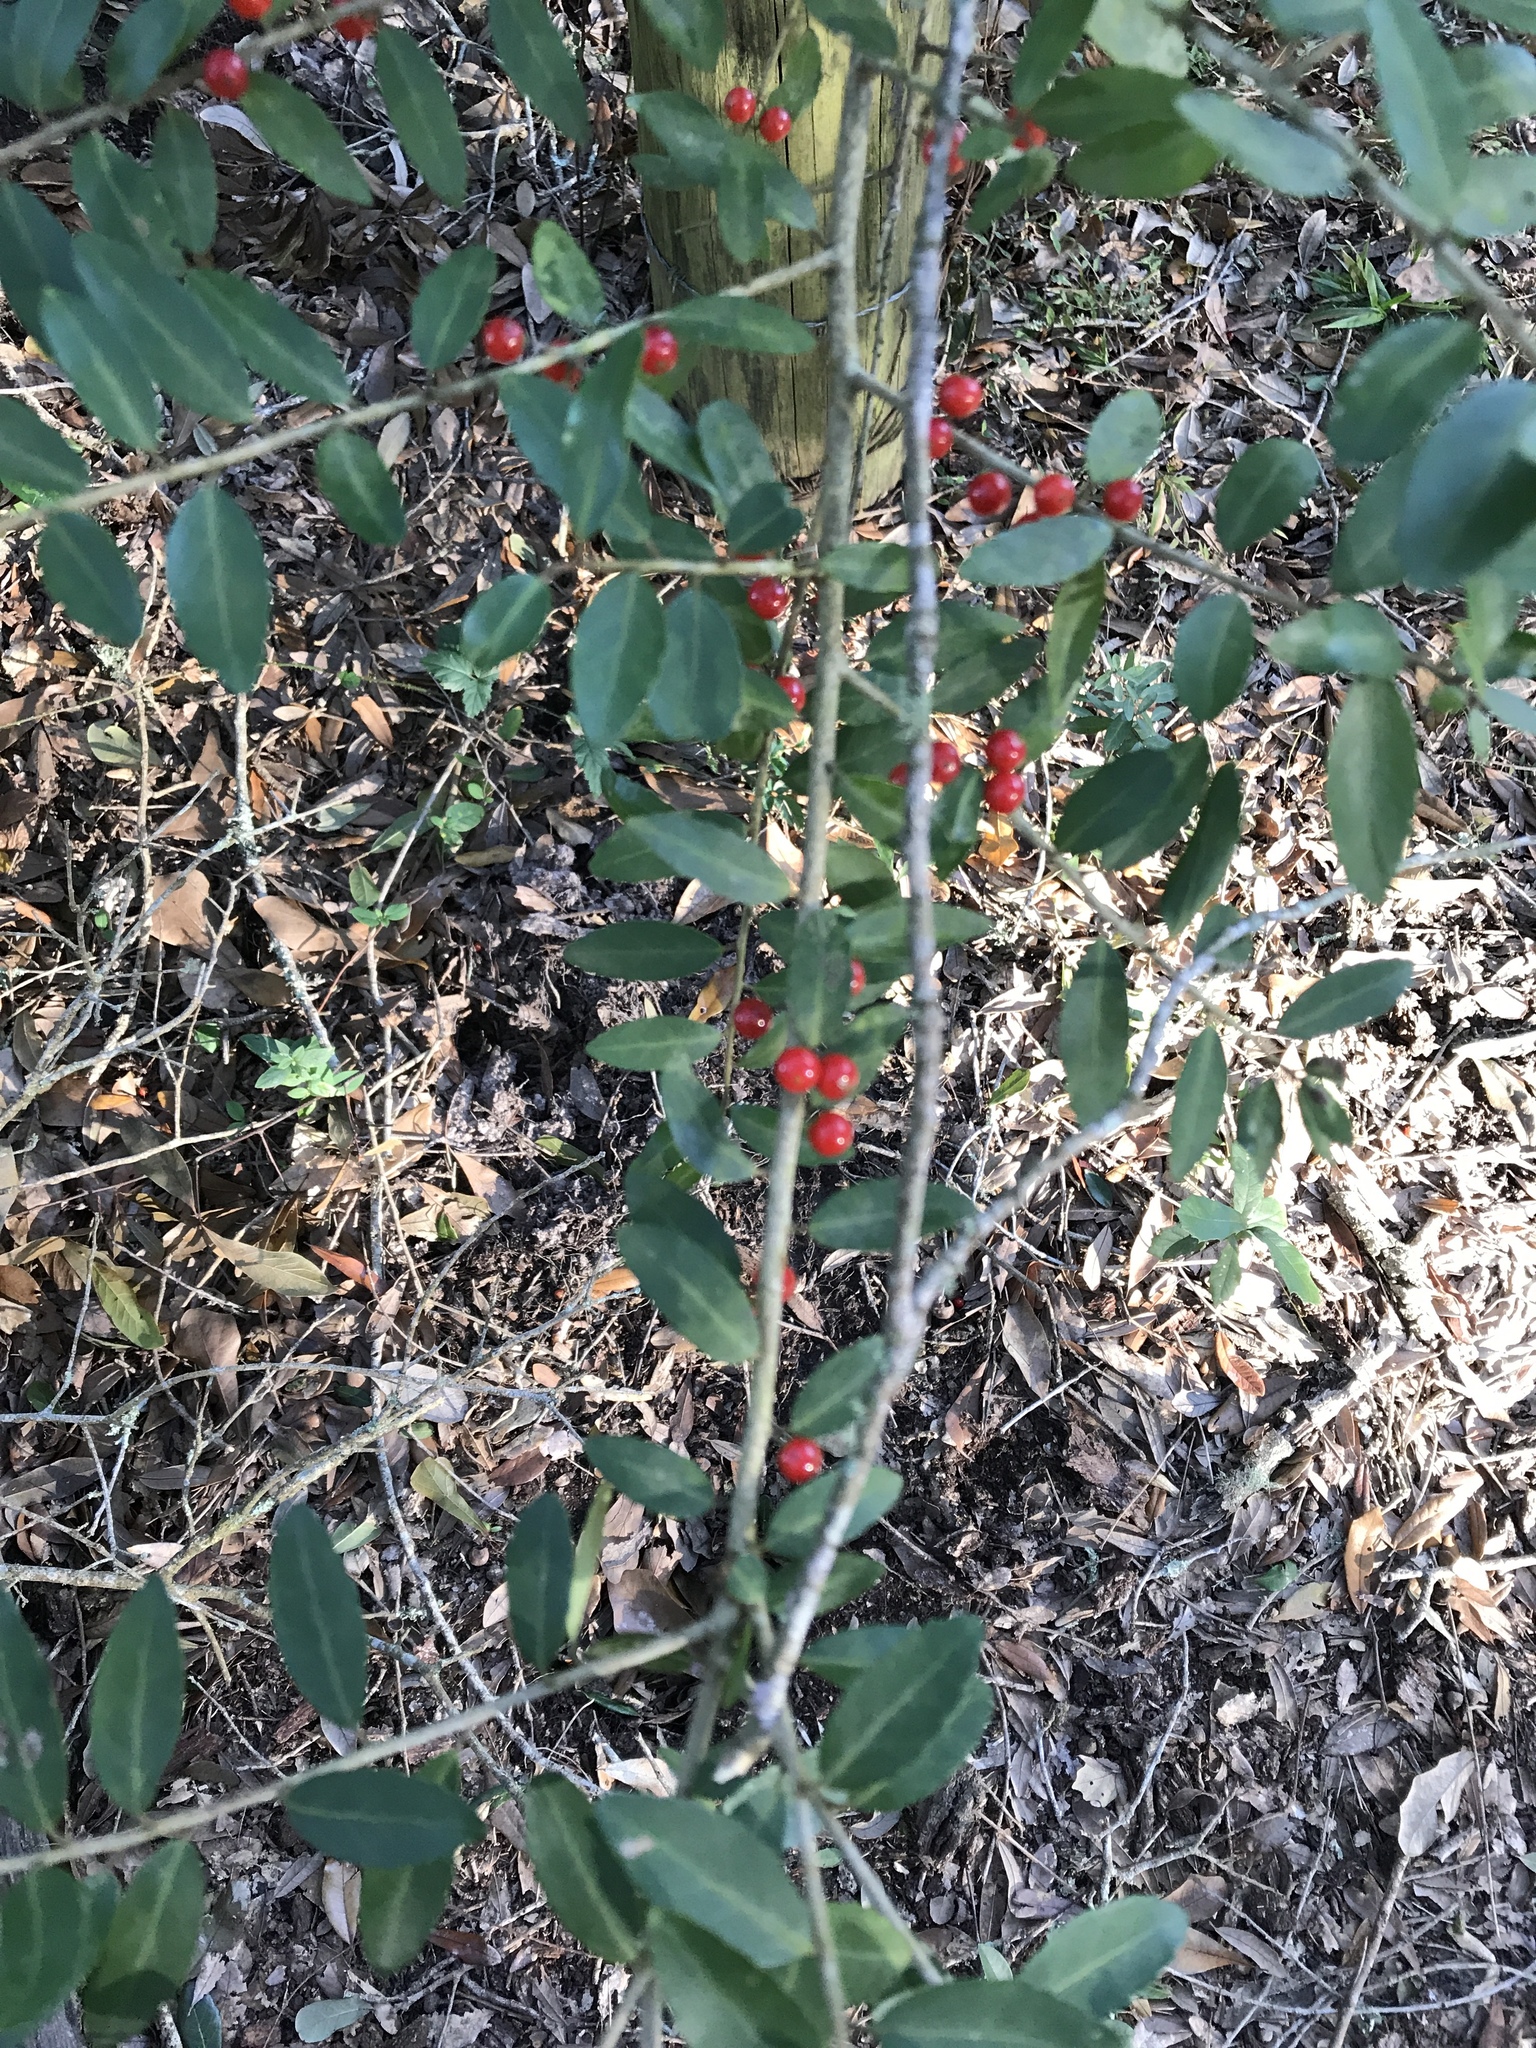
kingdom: Plantae
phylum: Tracheophyta
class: Magnoliopsida
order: Aquifoliales
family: Aquifoliaceae
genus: Ilex
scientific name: Ilex vomitoria
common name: Yaupon holly
